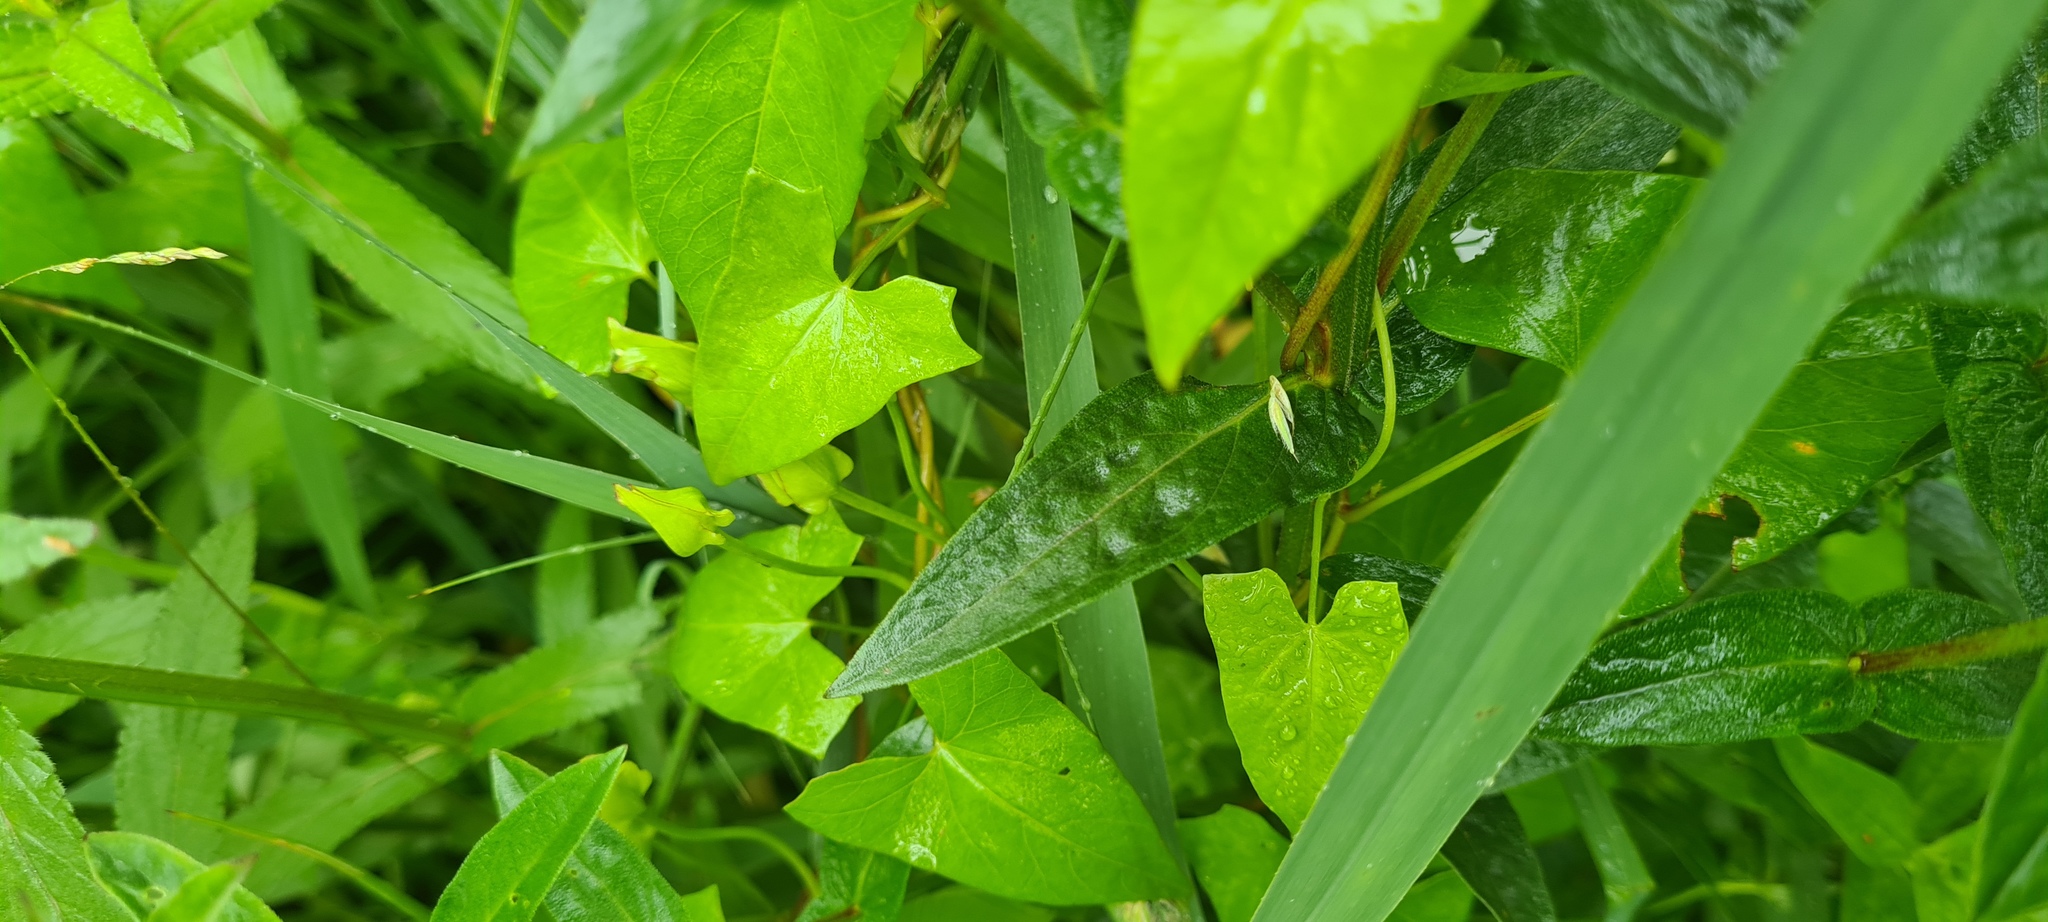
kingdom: Plantae
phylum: Tracheophyta
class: Magnoliopsida
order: Myrtales
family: Lythraceae
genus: Lythrum
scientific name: Lythrum salicaria
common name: Purple loosestrife
